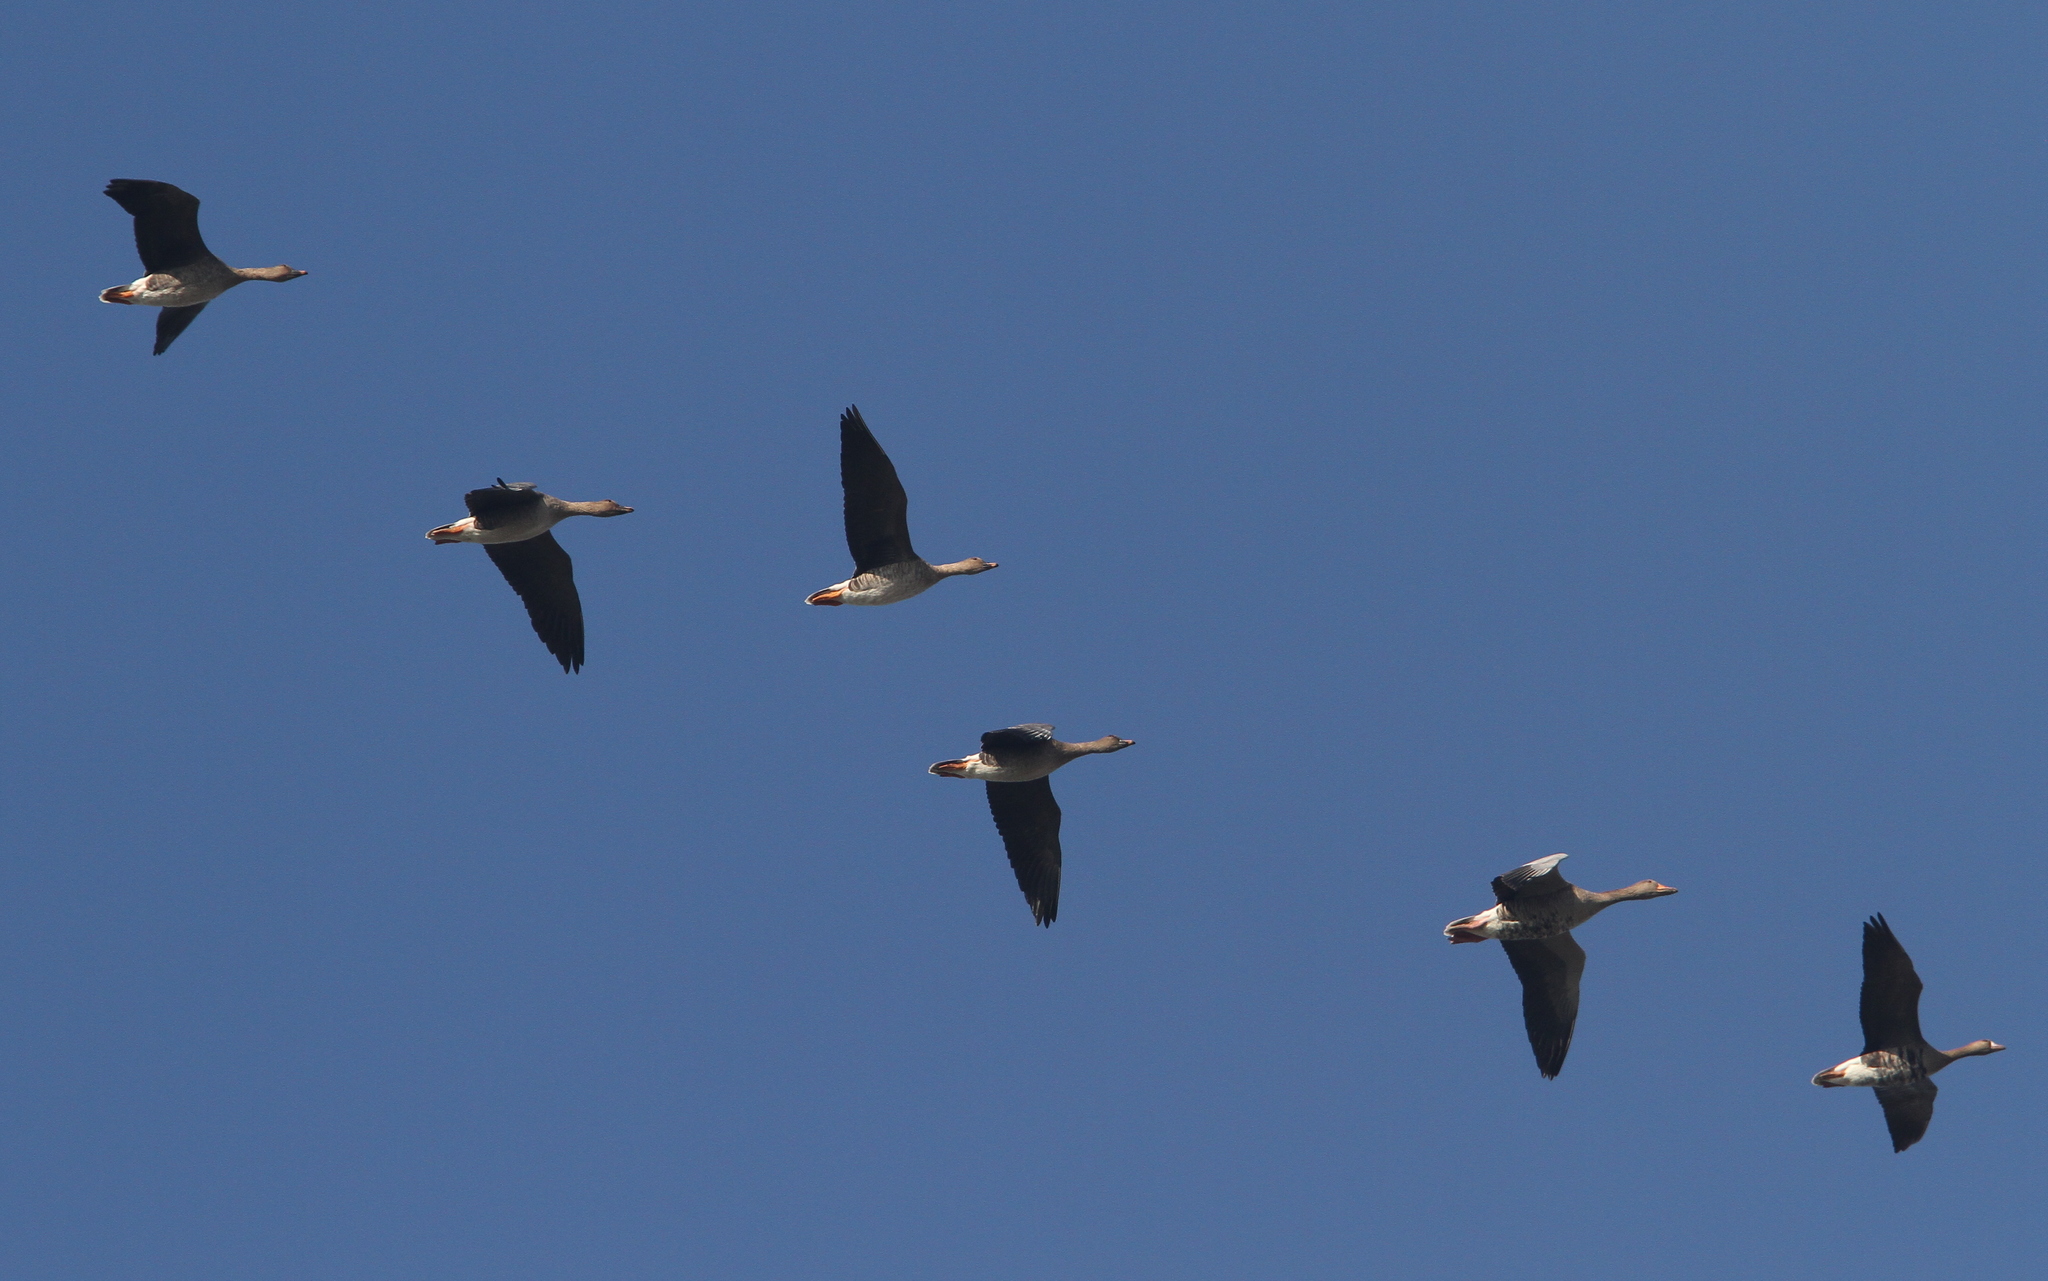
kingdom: Animalia
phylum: Chordata
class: Aves
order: Anseriformes
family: Anatidae
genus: Anser
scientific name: Anser serrirostris
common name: Tundra bean goose
